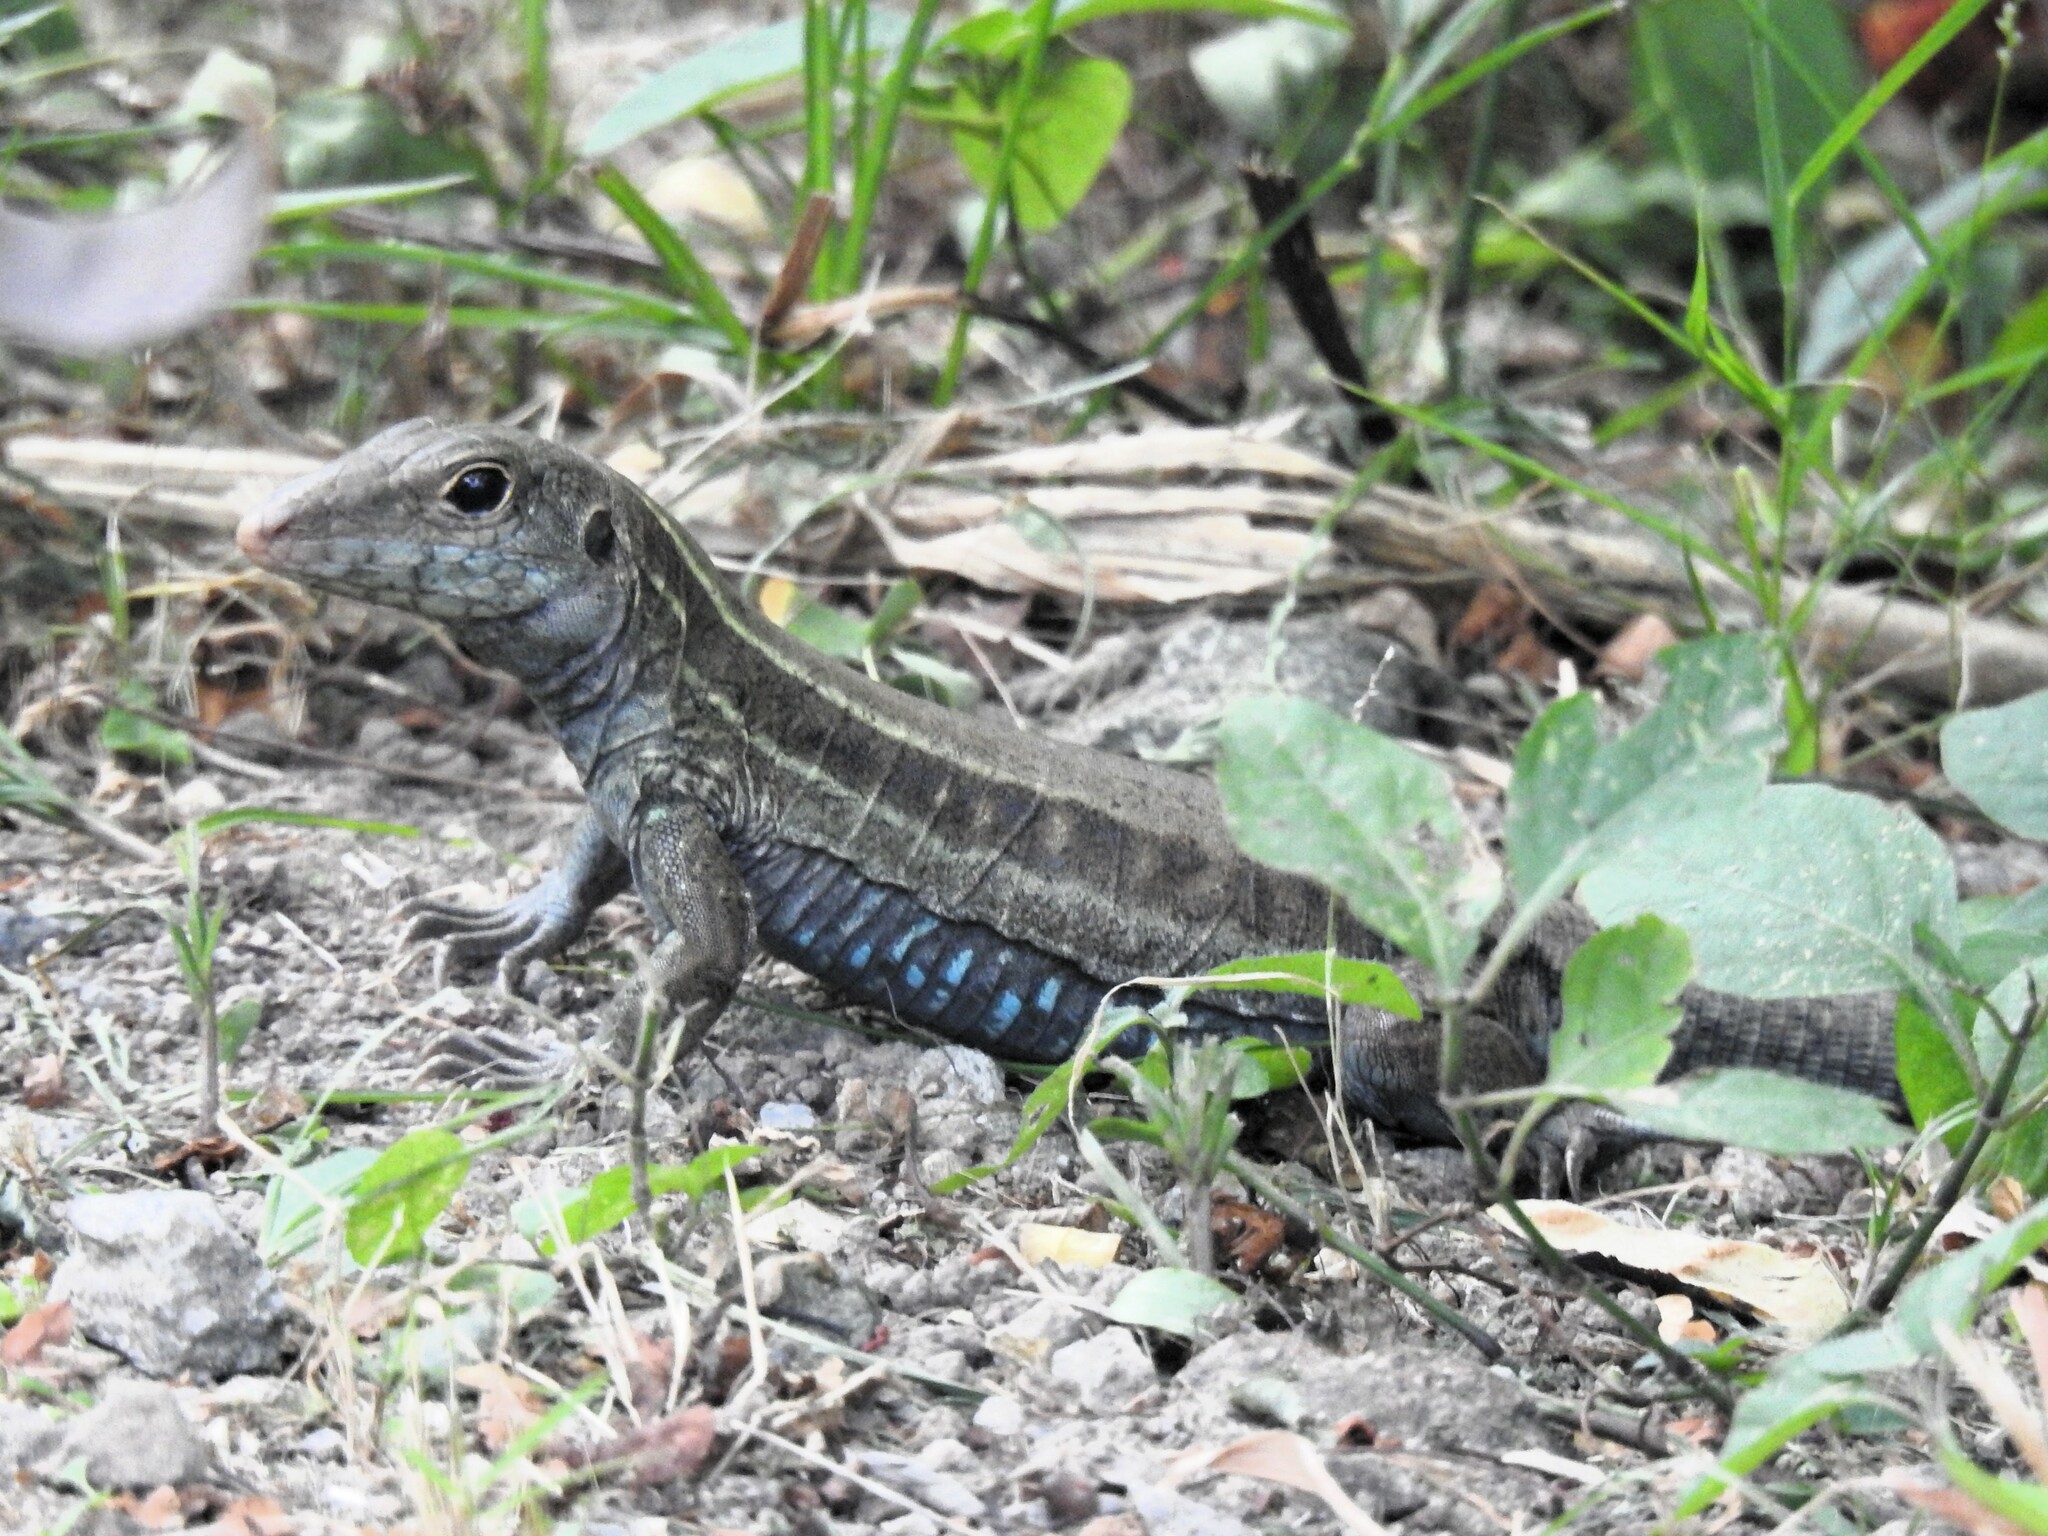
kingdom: Animalia
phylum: Chordata
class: Squamata
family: Teiidae
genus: Pholidoscelis
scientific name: Pholidoscelis fuscatus
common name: Dominican ameiva
